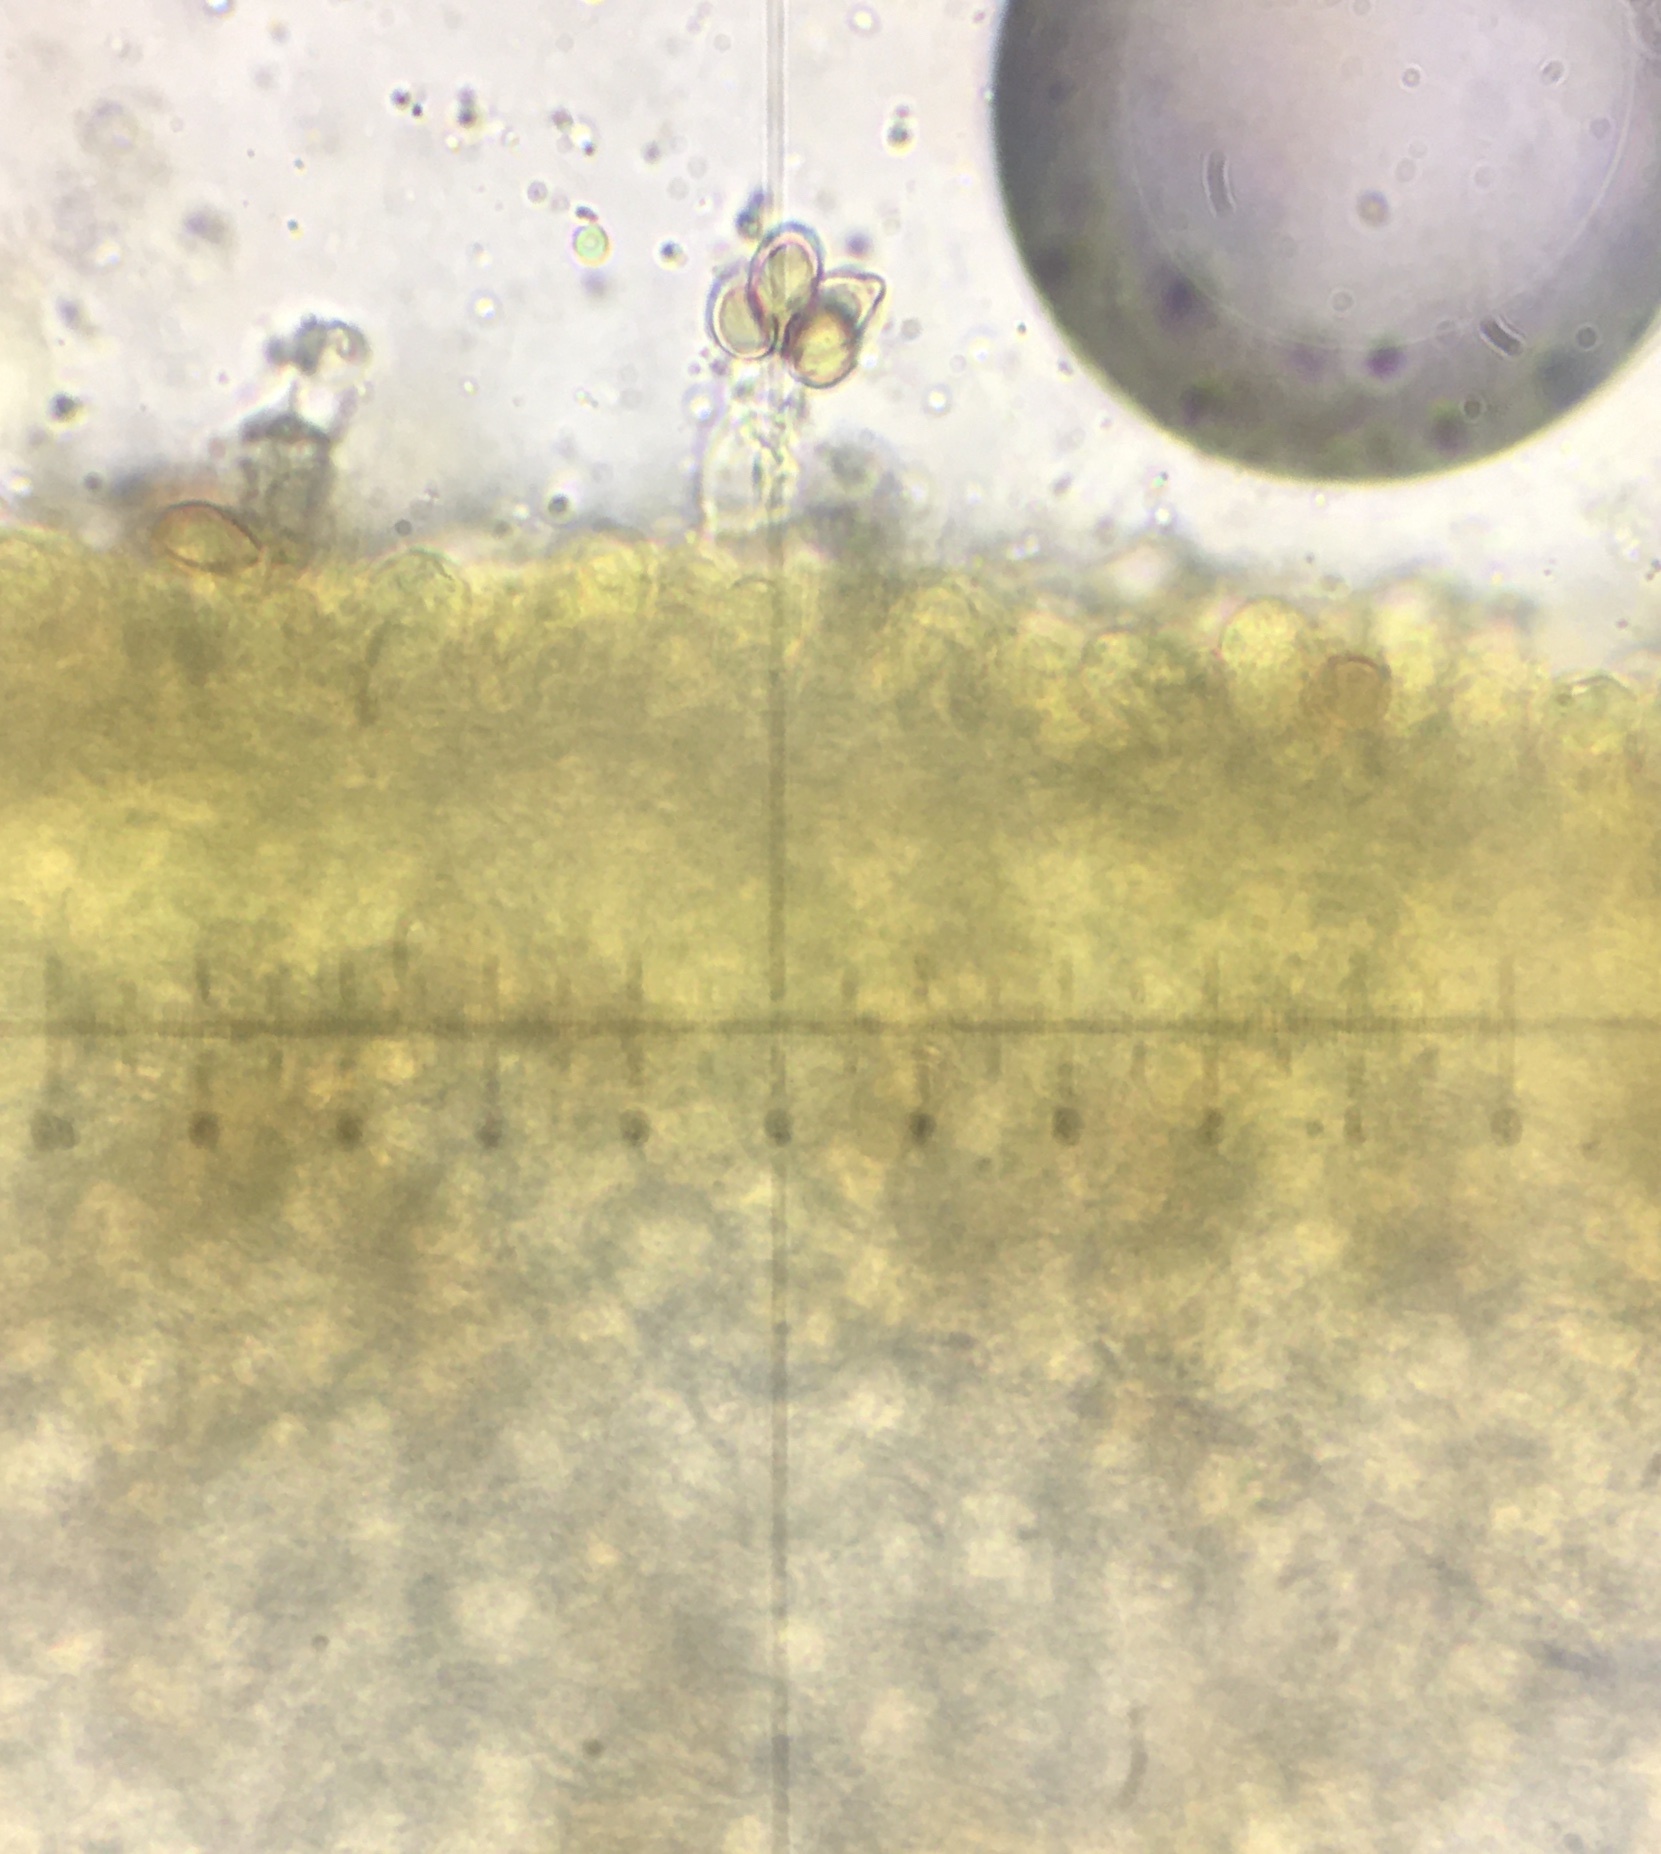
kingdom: Fungi
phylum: Basidiomycota
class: Agaricomycetes
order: Agaricales
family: Hymenogastraceae
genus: Hebeloma
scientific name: Hebeloma cavipes
